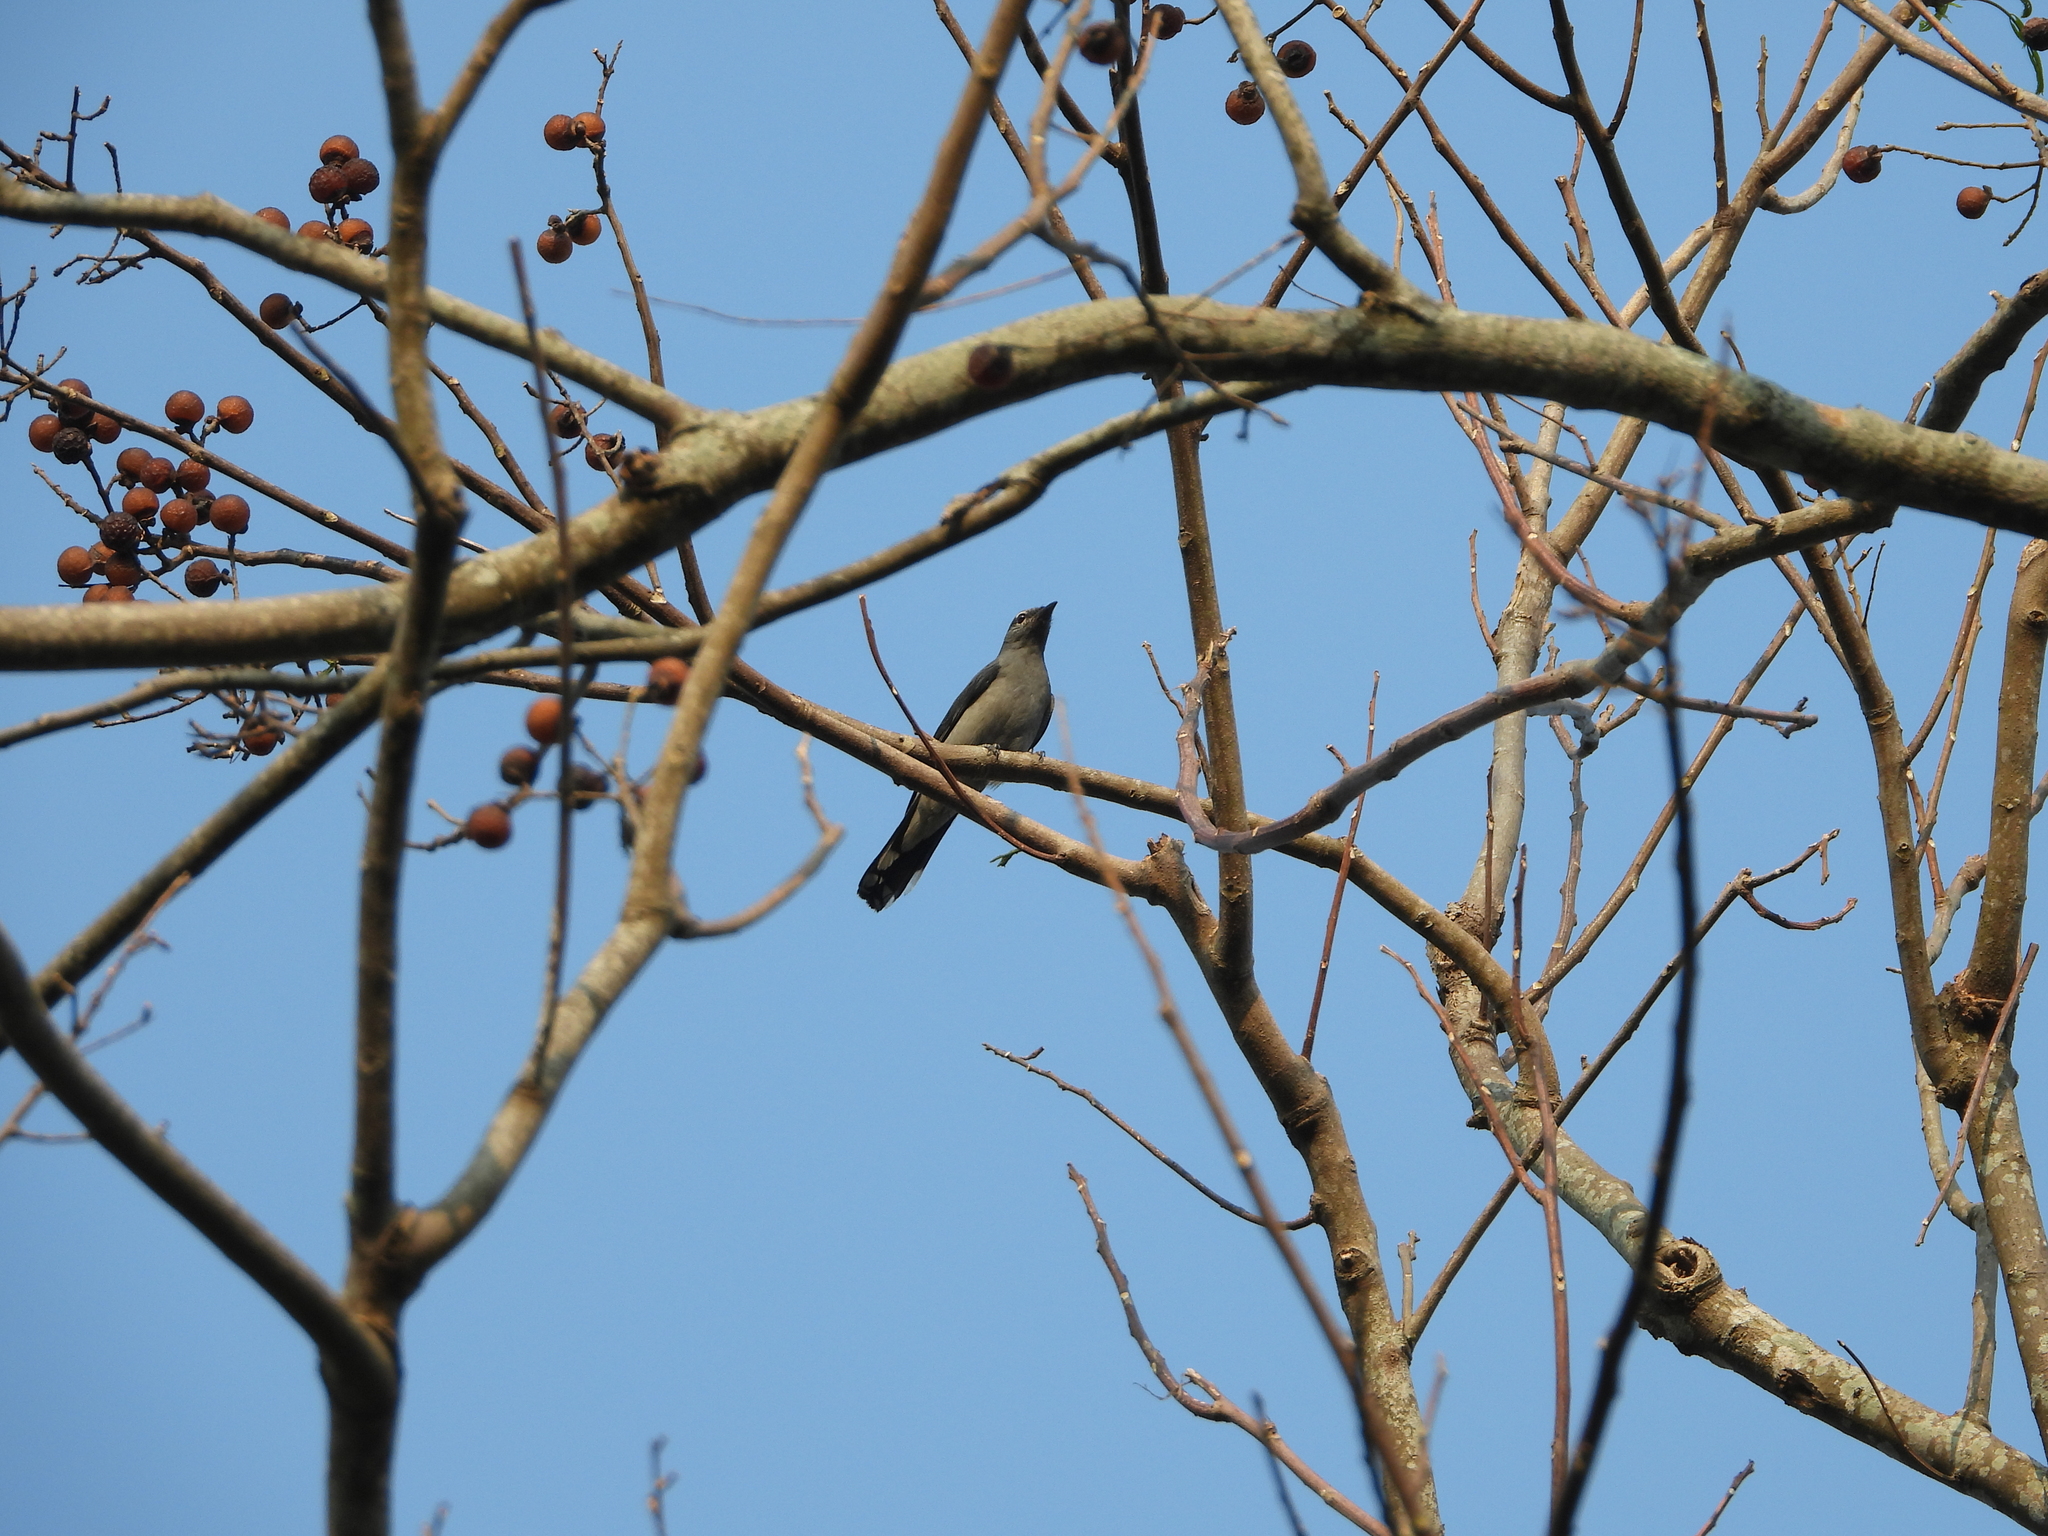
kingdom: Animalia
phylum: Chordata
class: Aves
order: Passeriformes
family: Campephagidae
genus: Coracina
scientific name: Coracina melaschistos
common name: Black-winged cuckooshrike
